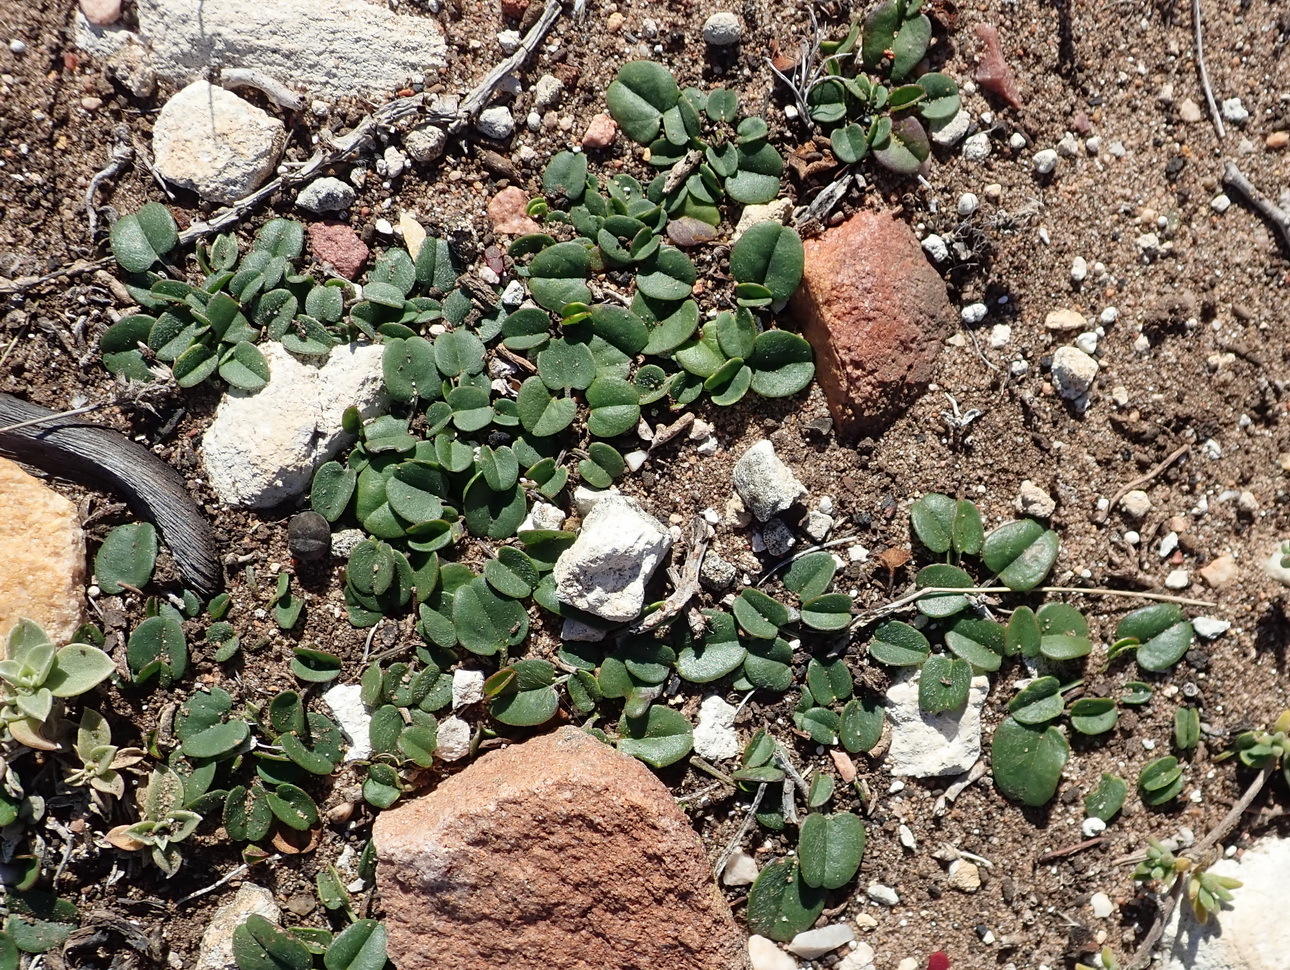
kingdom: Plantae
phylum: Tracheophyta
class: Magnoliopsida
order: Solanales
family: Convolvulaceae
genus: Falkia
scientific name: Falkia repens
